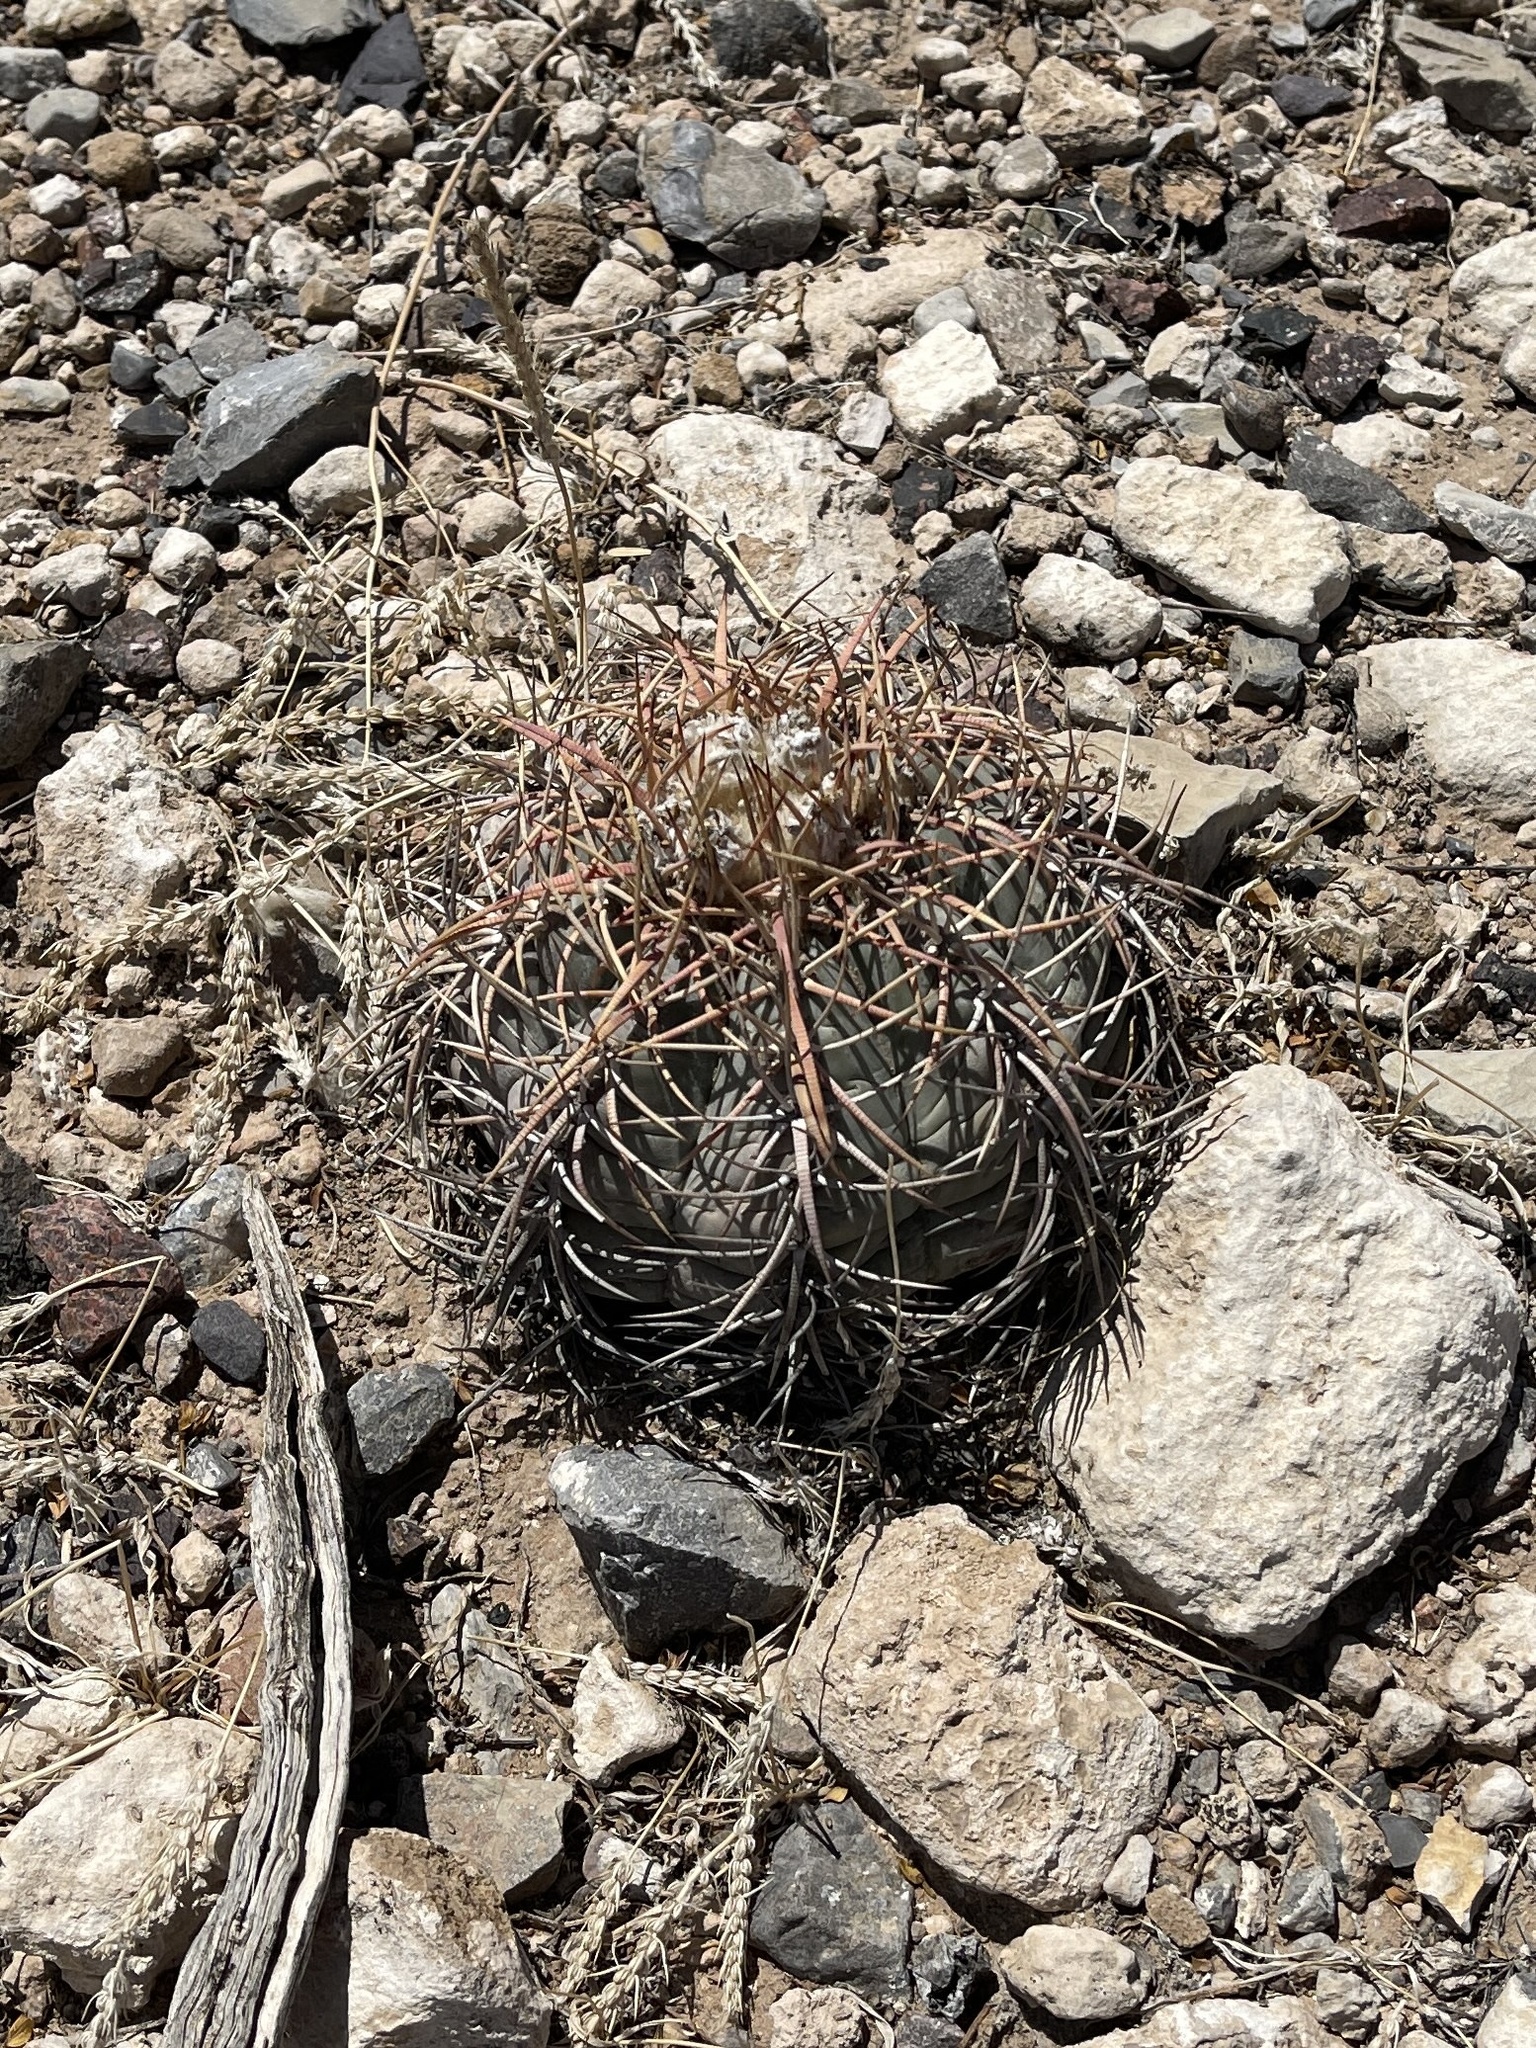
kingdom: Plantae
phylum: Tracheophyta
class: Magnoliopsida
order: Caryophyllales
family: Cactaceae
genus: Echinocactus
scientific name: Echinocactus horizonthalonius
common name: Devilshead
